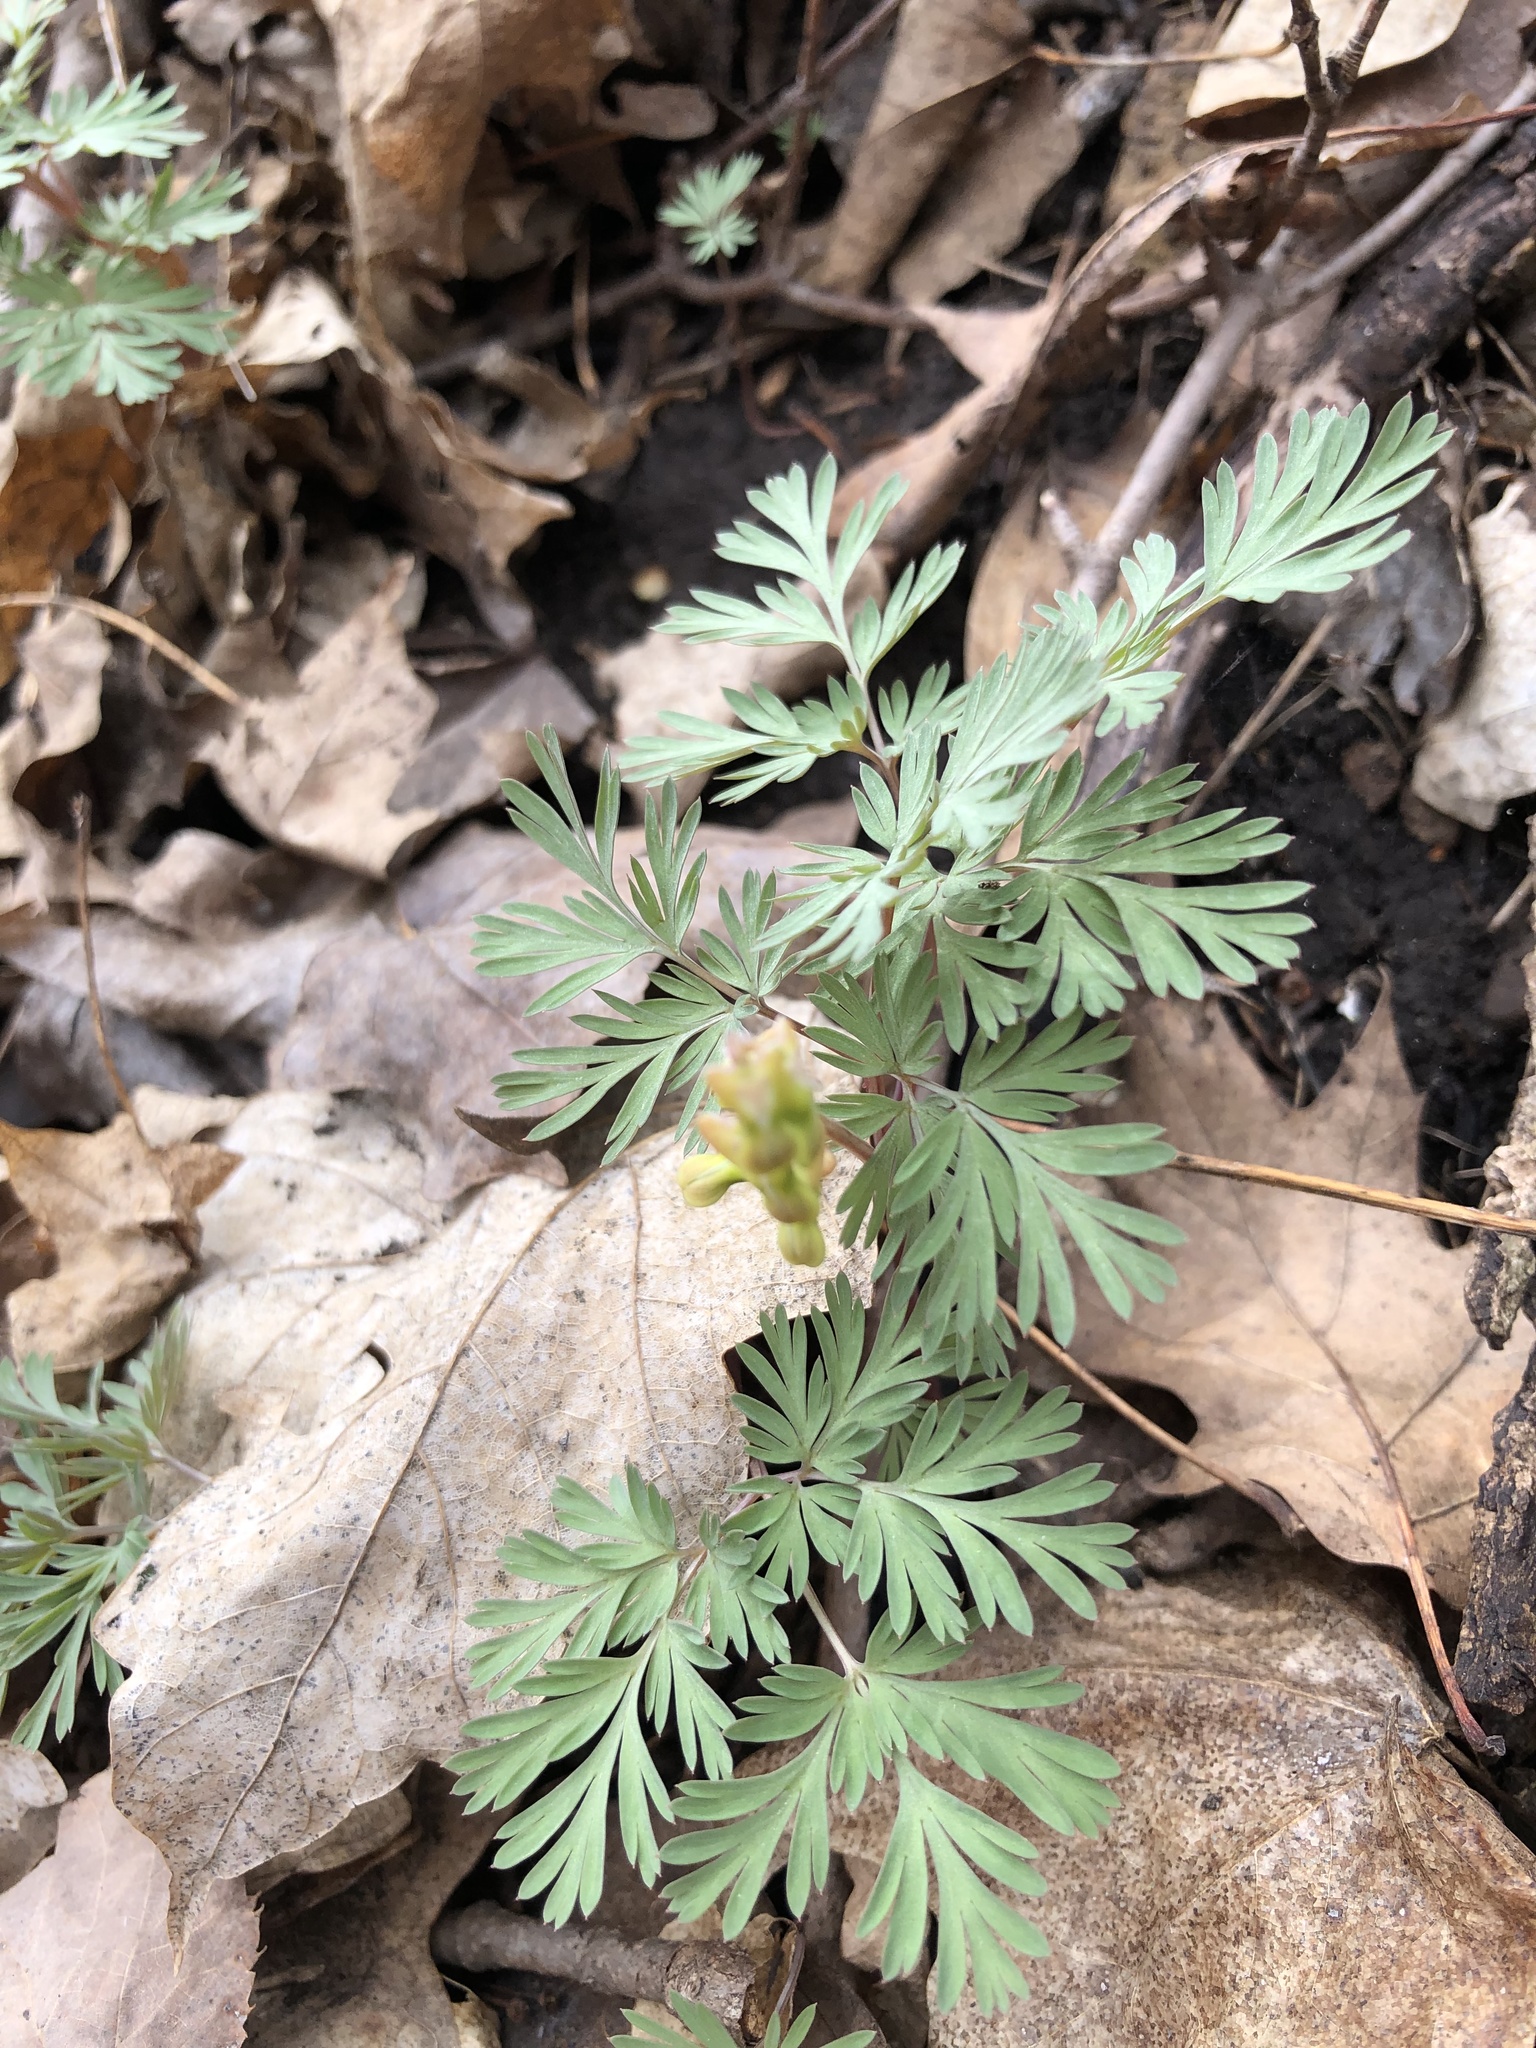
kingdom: Plantae
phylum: Tracheophyta
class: Magnoliopsida
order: Ranunculales
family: Papaveraceae
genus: Dicentra
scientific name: Dicentra cucullaria
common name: Dutchman's breeches
